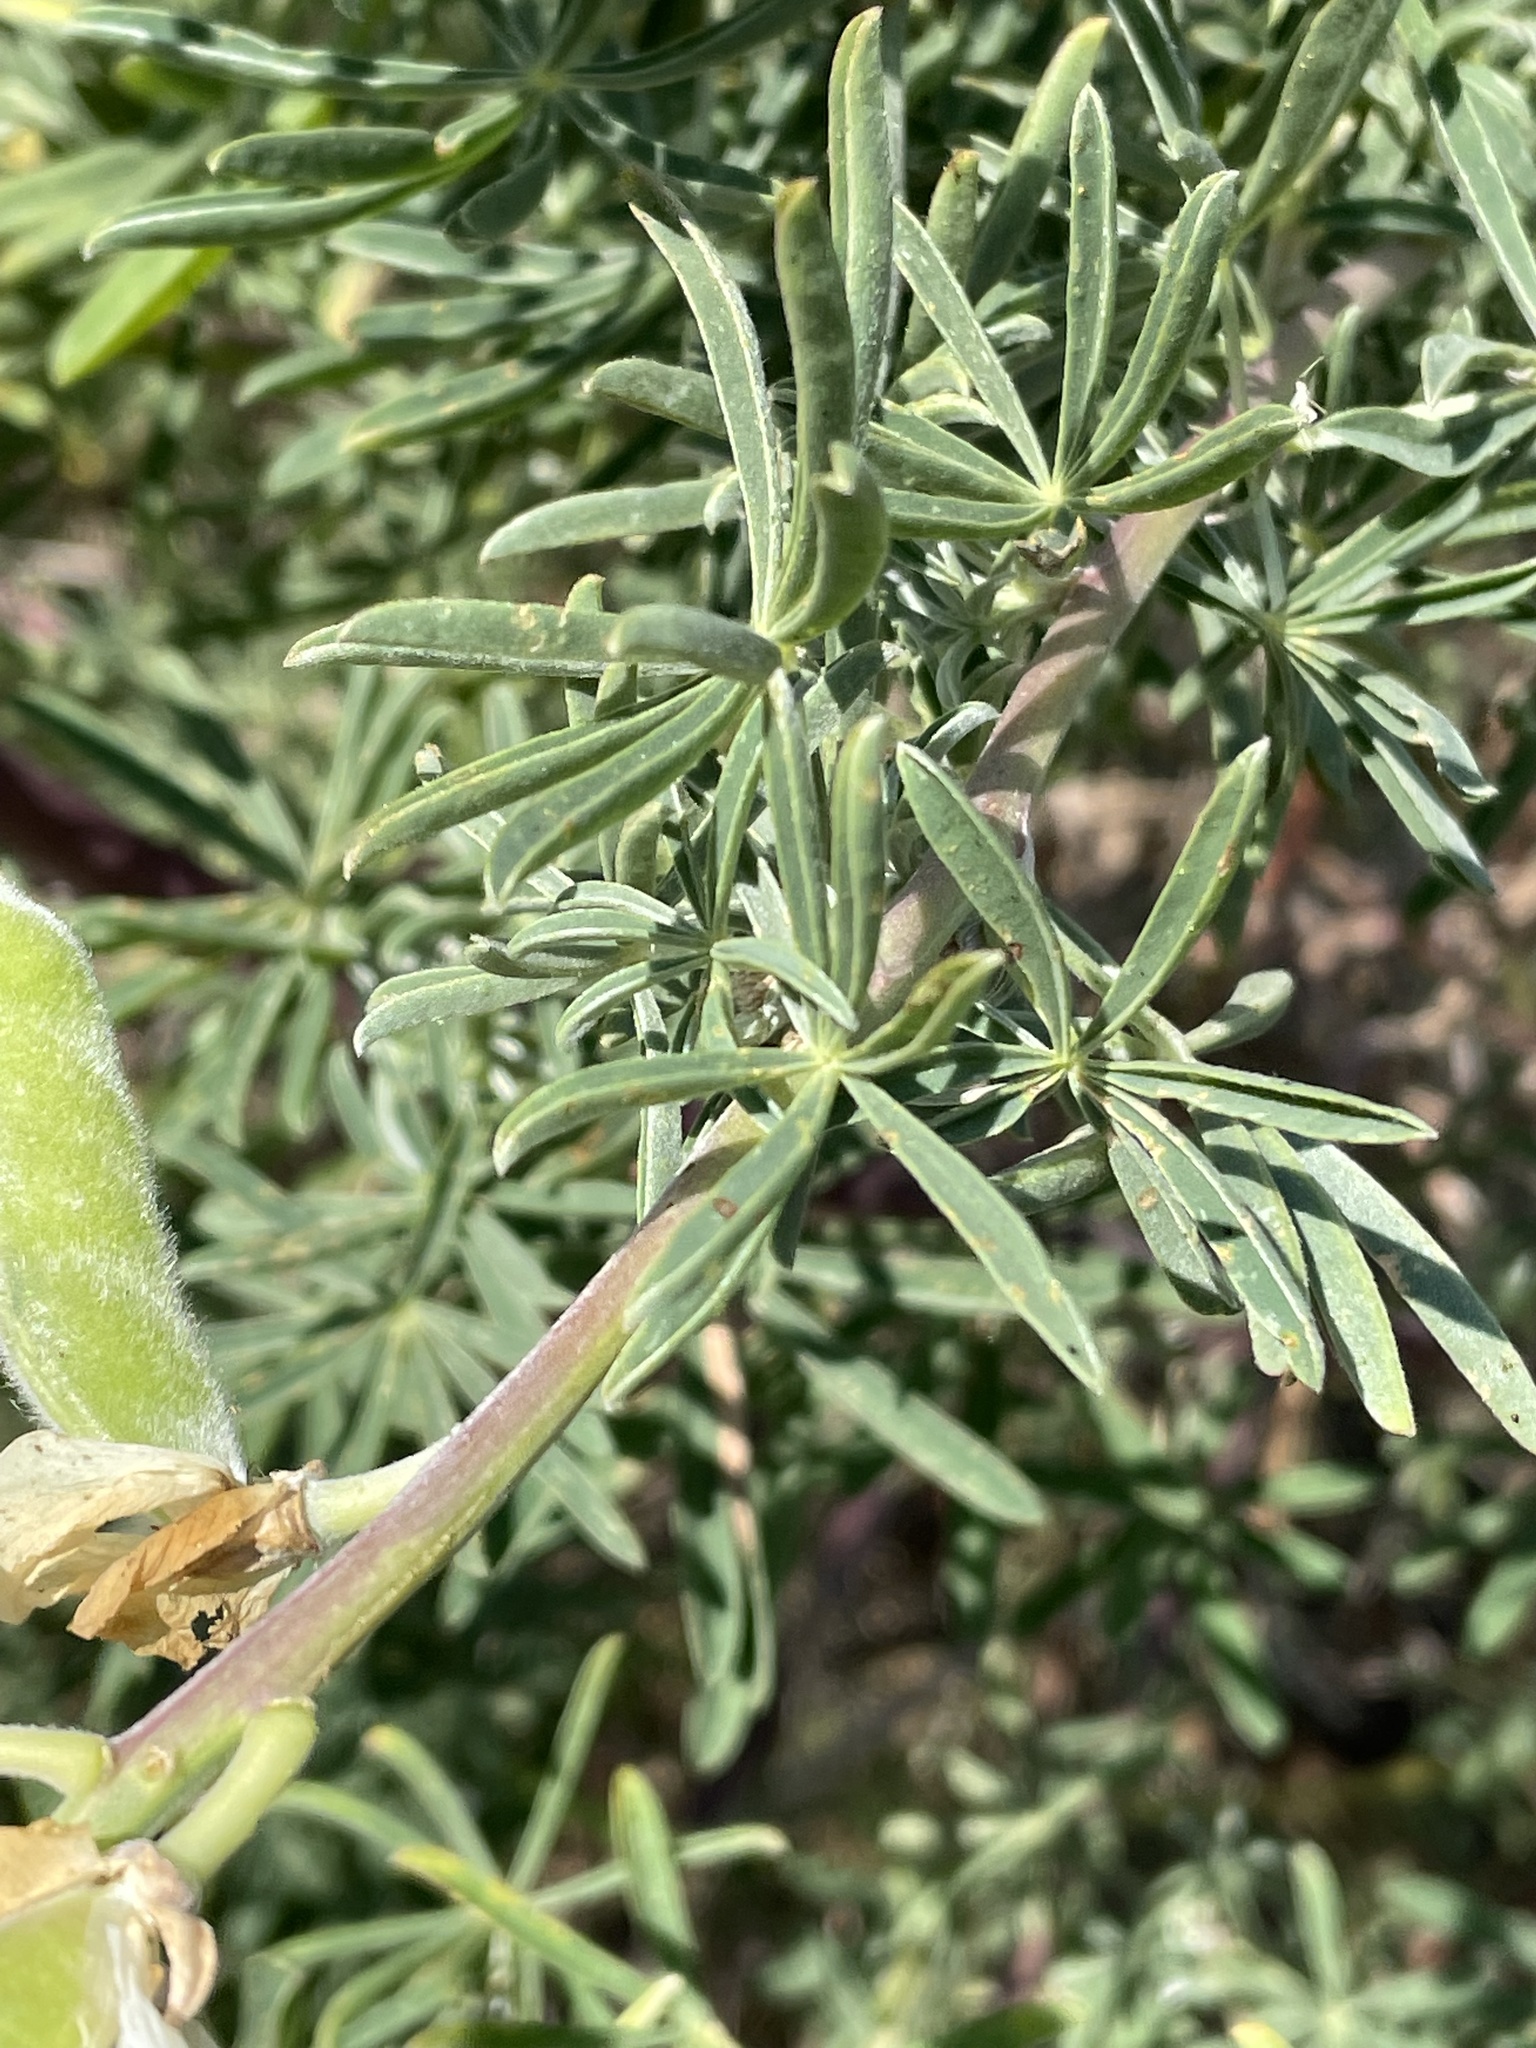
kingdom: Plantae
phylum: Tracheophyta
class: Magnoliopsida
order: Fabales
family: Fabaceae
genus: Lupinus
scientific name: Lupinus arboreus
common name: Yellow bush lupine
